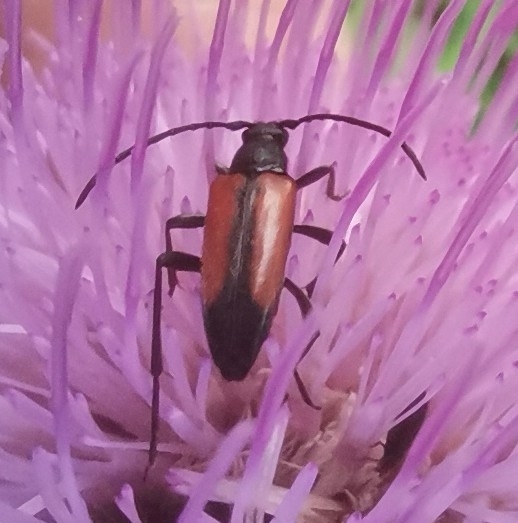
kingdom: Animalia
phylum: Arthropoda
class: Insecta
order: Coleoptera
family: Cerambycidae
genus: Stenurella
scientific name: Stenurella melanura
